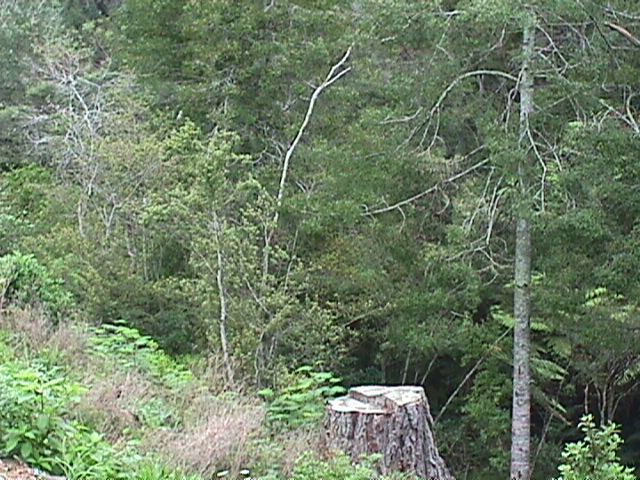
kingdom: Plantae
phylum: Tracheophyta
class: Pinopsida
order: Pinales
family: Phyllocladaceae
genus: Phyllocladus
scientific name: Phyllocladus trichomanoides
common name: Celery pine
